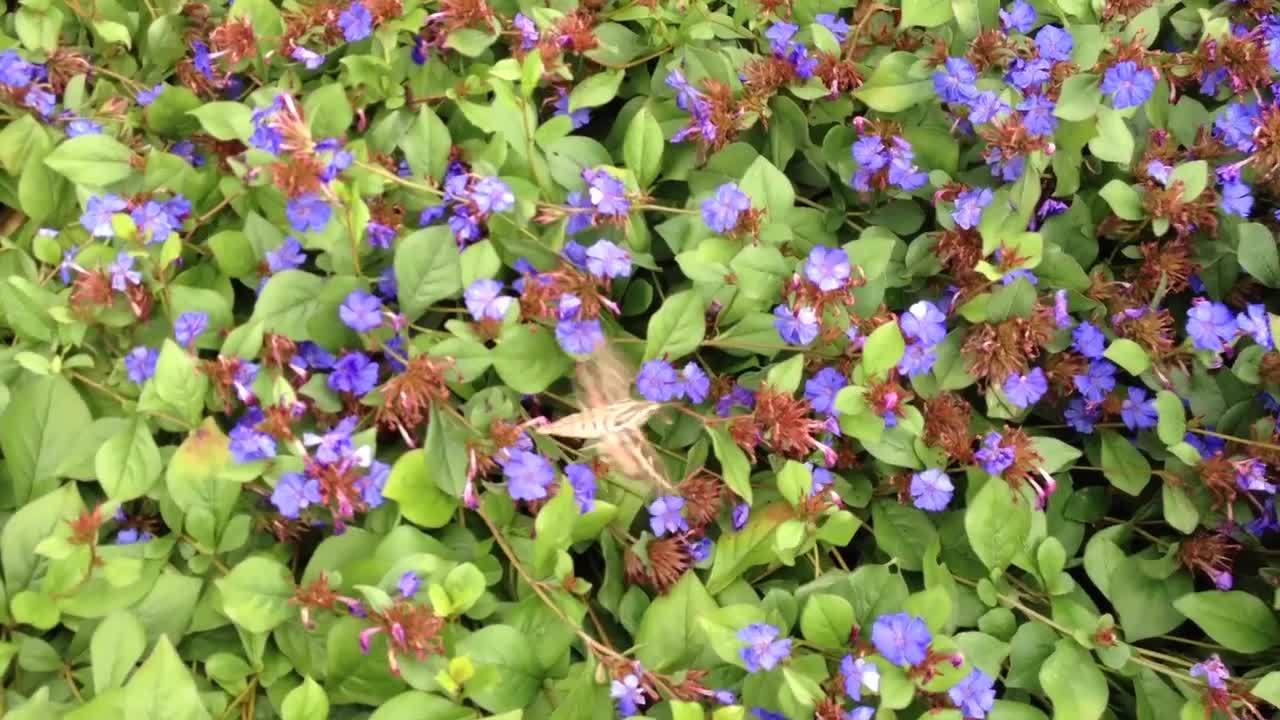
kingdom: Animalia
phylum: Arthropoda
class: Insecta
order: Lepidoptera
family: Sphingidae
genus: Hyles
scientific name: Hyles lineata
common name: White-lined sphinx
